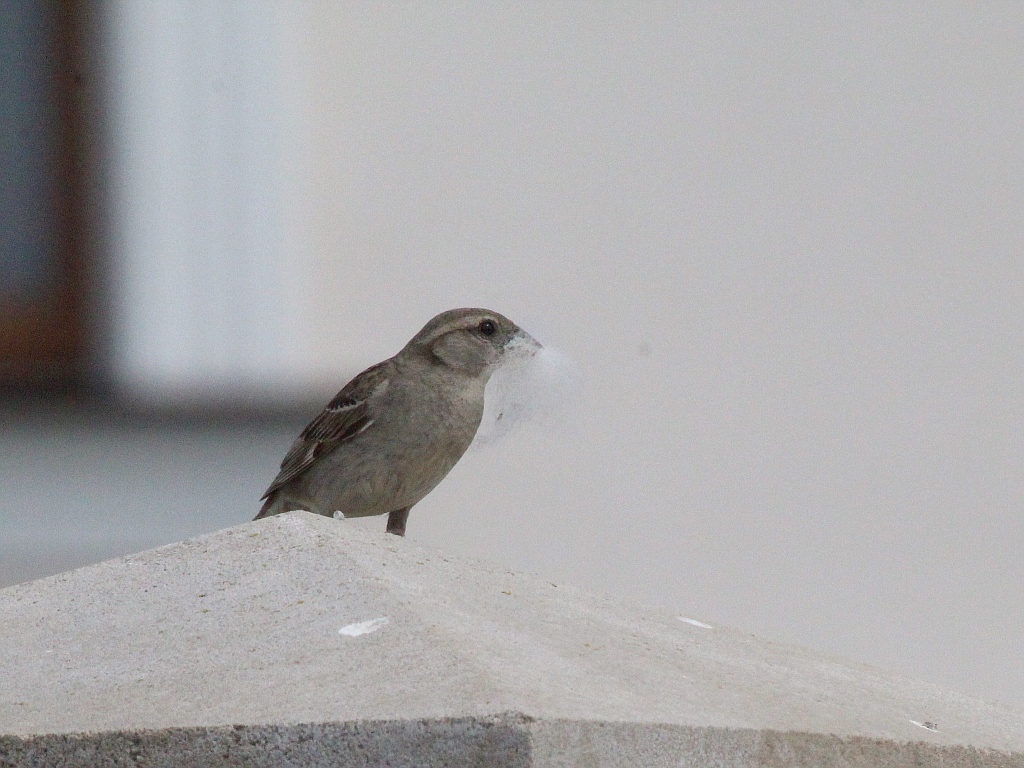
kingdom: Animalia
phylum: Chordata
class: Aves
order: Passeriformes
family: Passeridae
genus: Passer
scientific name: Passer domesticus
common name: House sparrow
